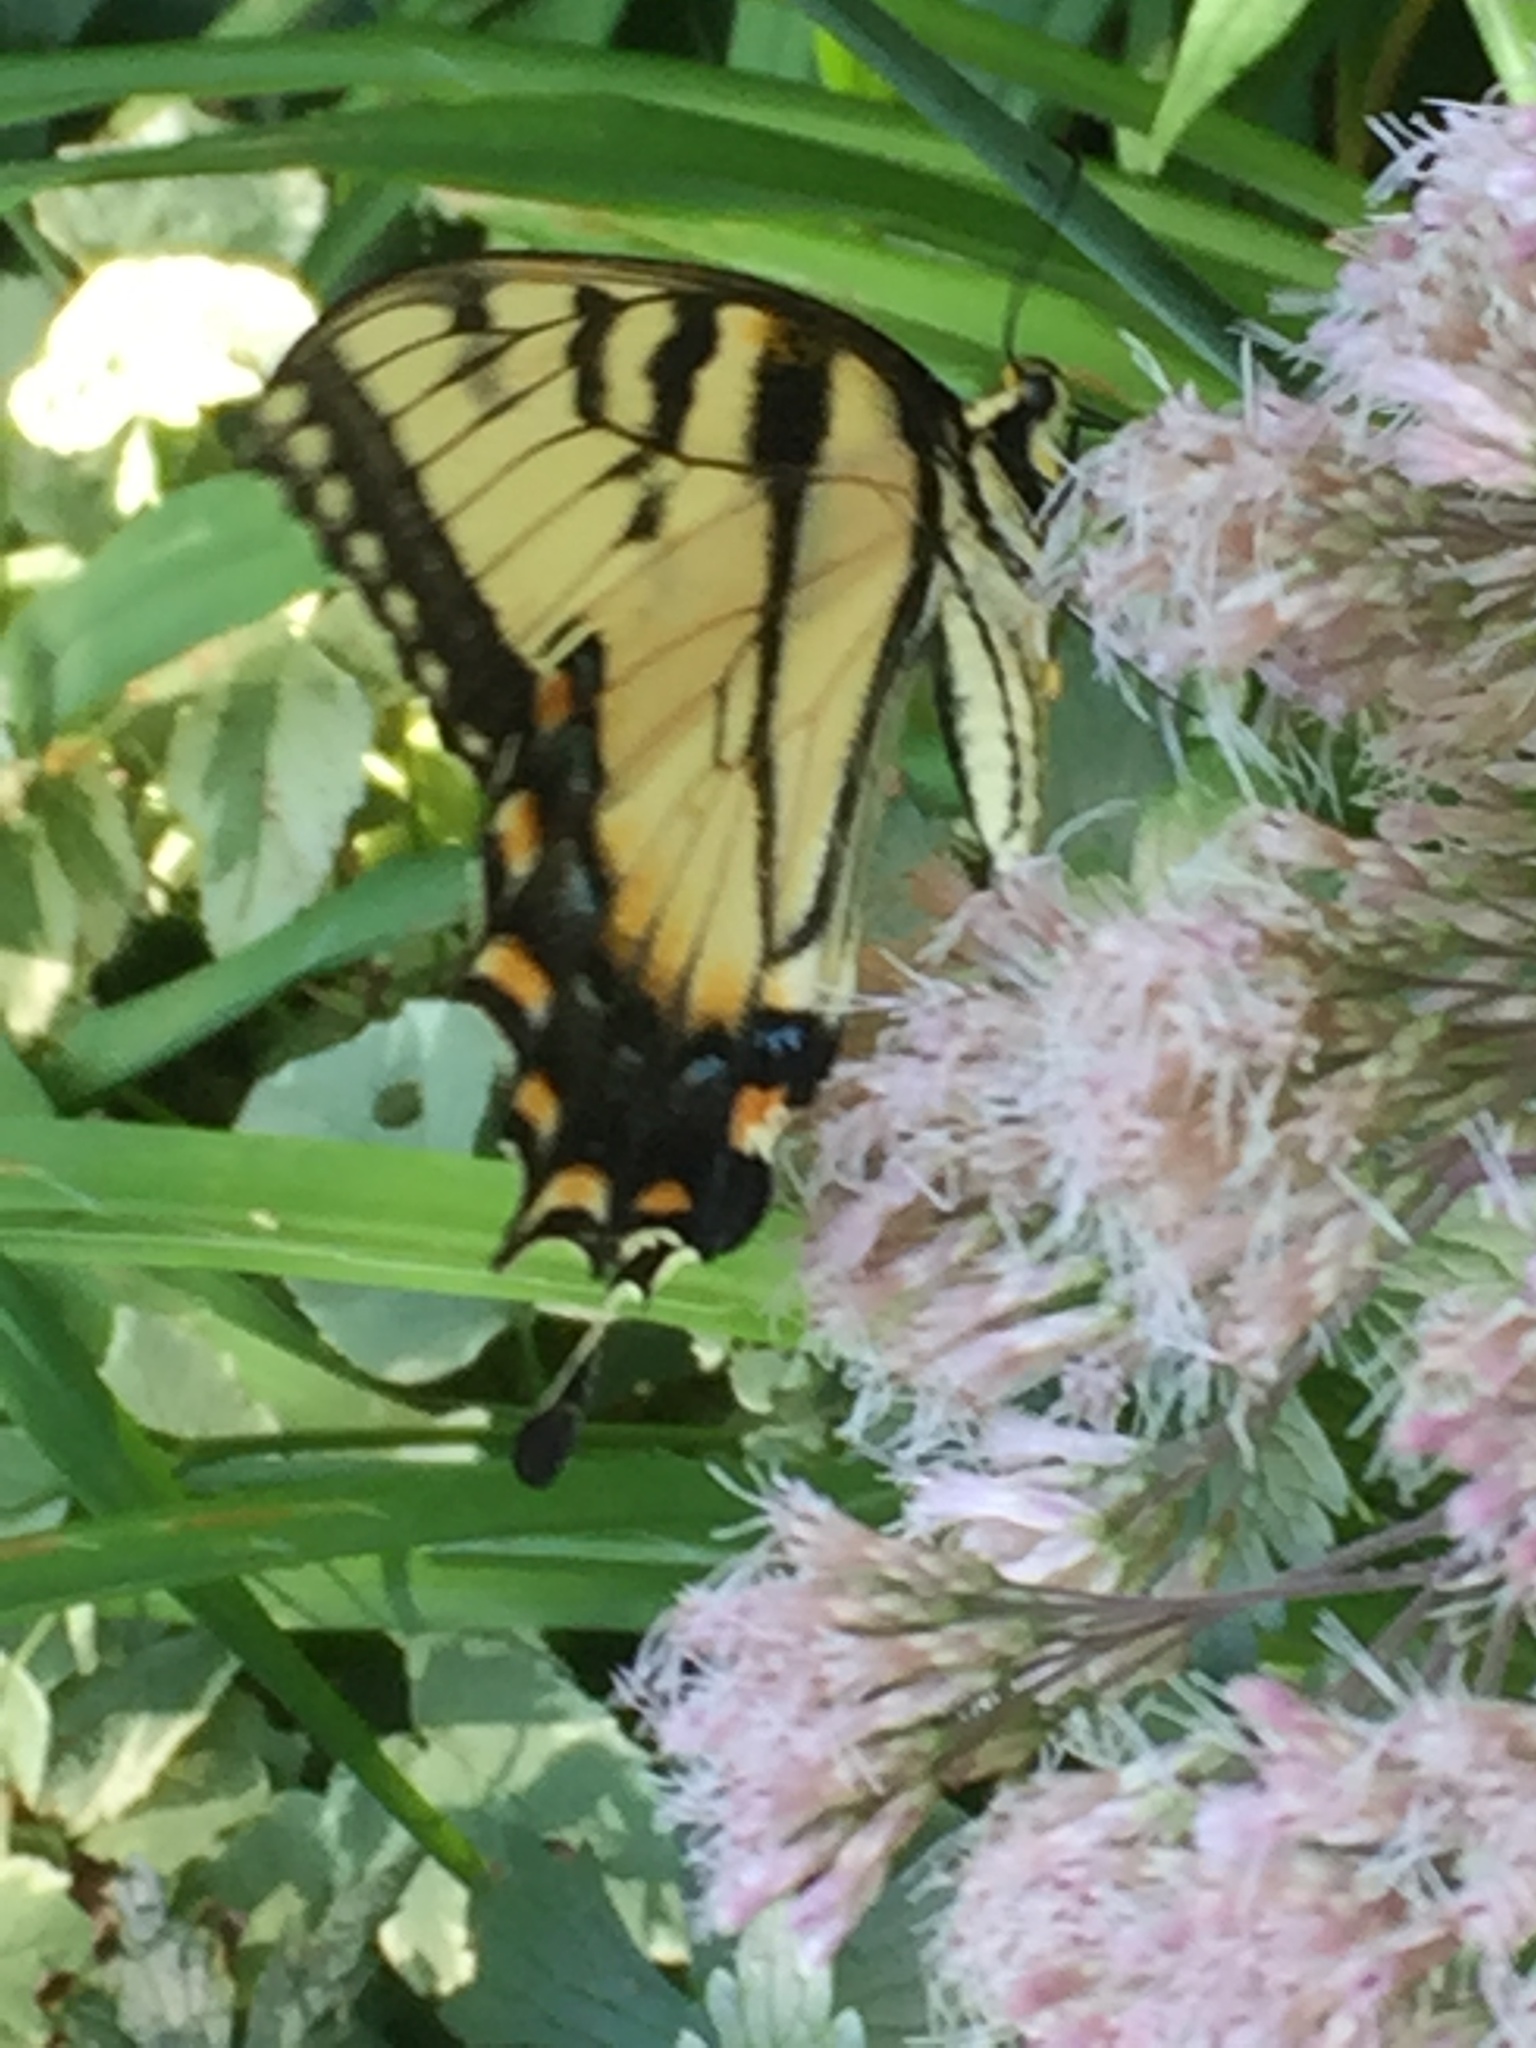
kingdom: Animalia
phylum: Arthropoda
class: Insecta
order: Lepidoptera
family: Papilionidae
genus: Papilio
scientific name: Papilio glaucus
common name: Tiger swallowtail
